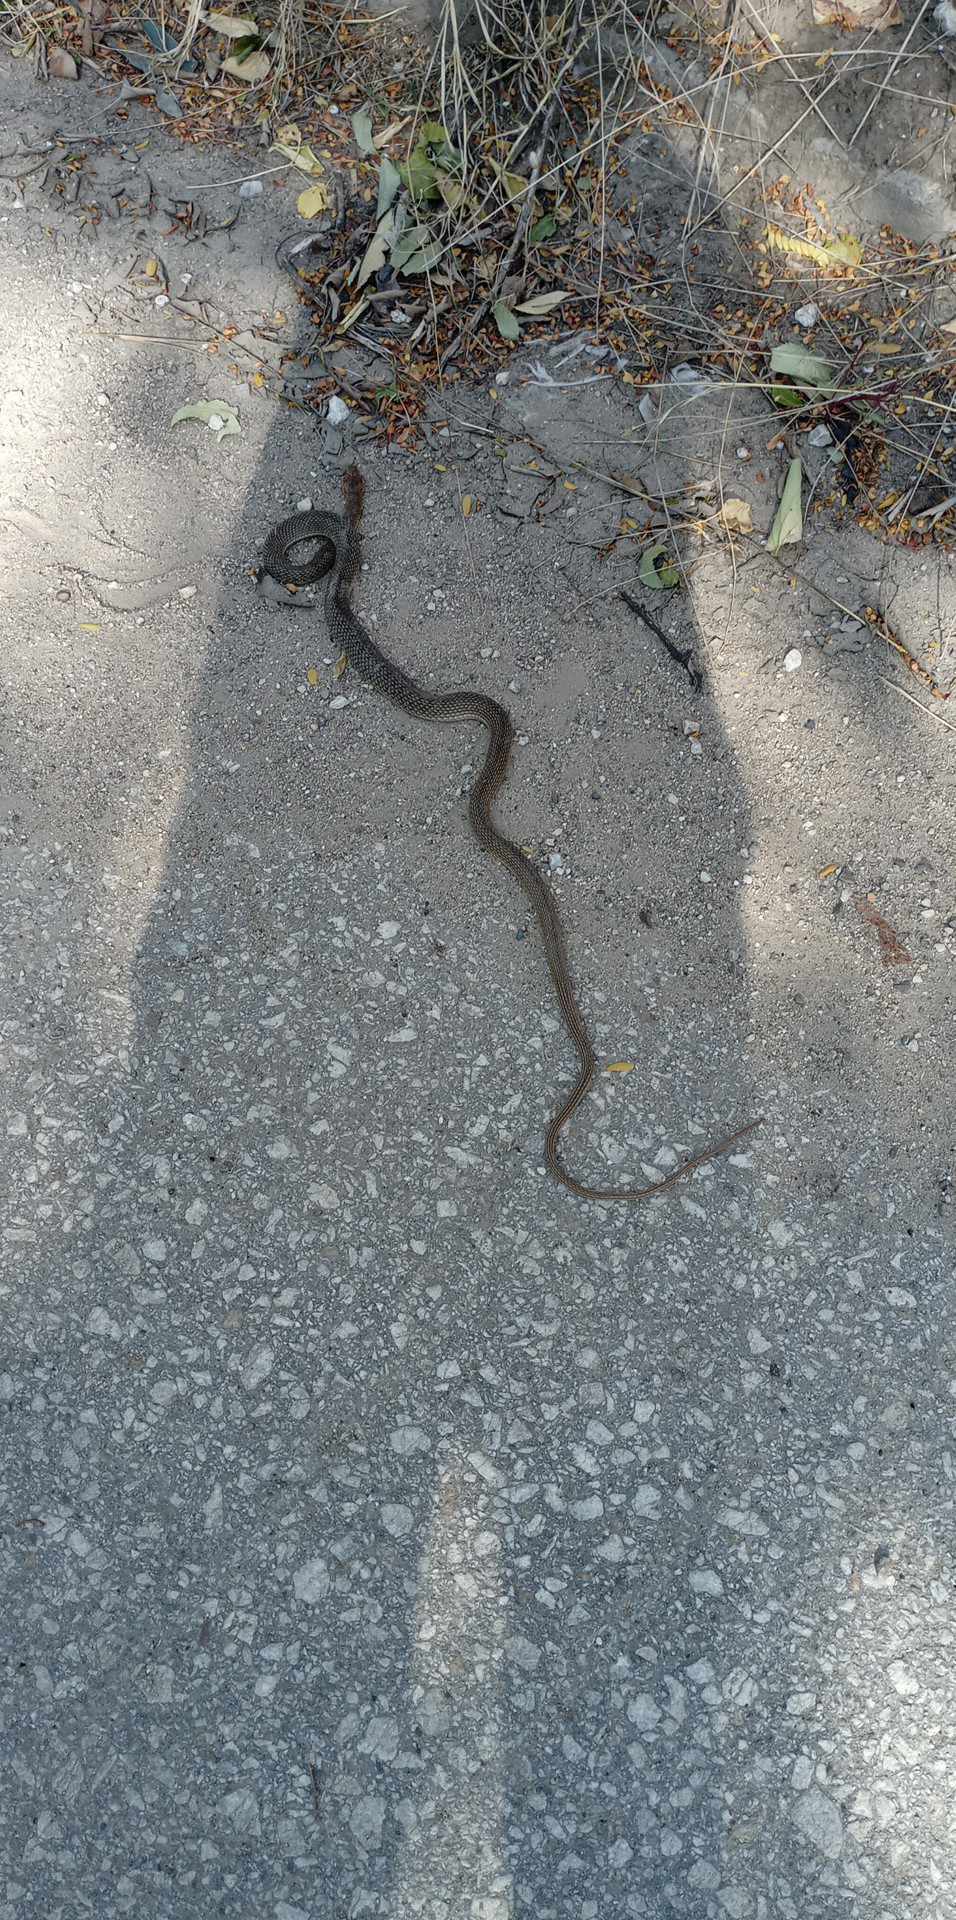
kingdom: Animalia
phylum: Chordata
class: Squamata
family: Colubridae
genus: Dolichophis
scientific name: Dolichophis caspius
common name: Large whip snake
